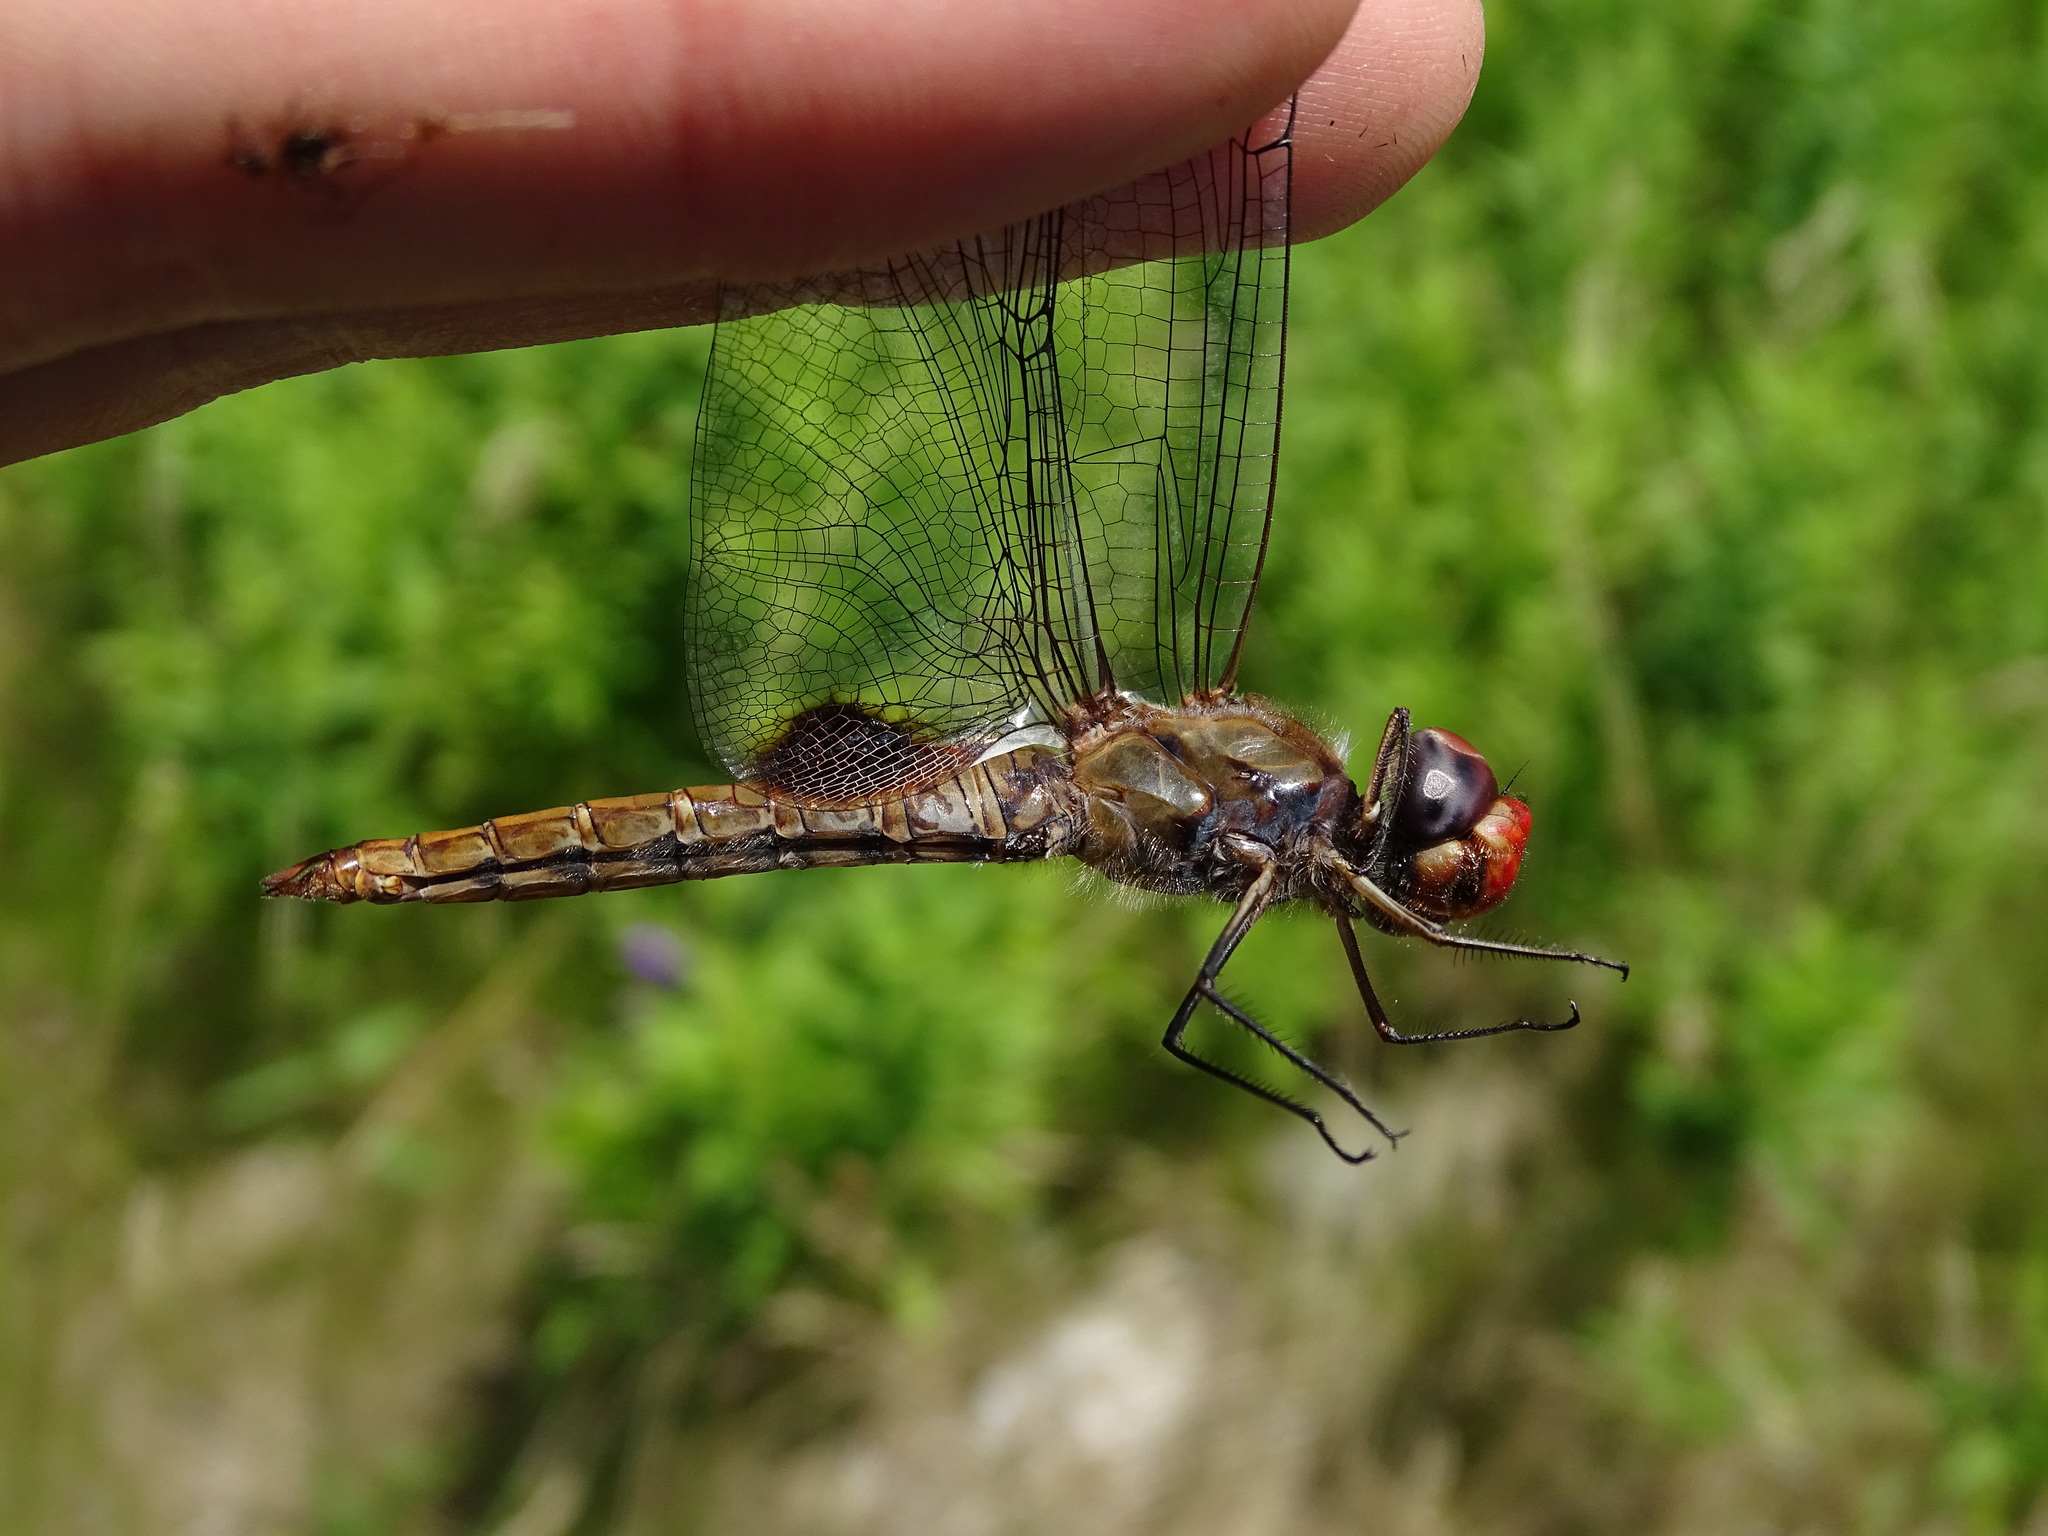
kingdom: Animalia
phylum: Arthropoda
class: Insecta
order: Odonata
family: Libellulidae
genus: Pantala
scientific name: Pantala hymenaea
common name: Spot-winged glider
